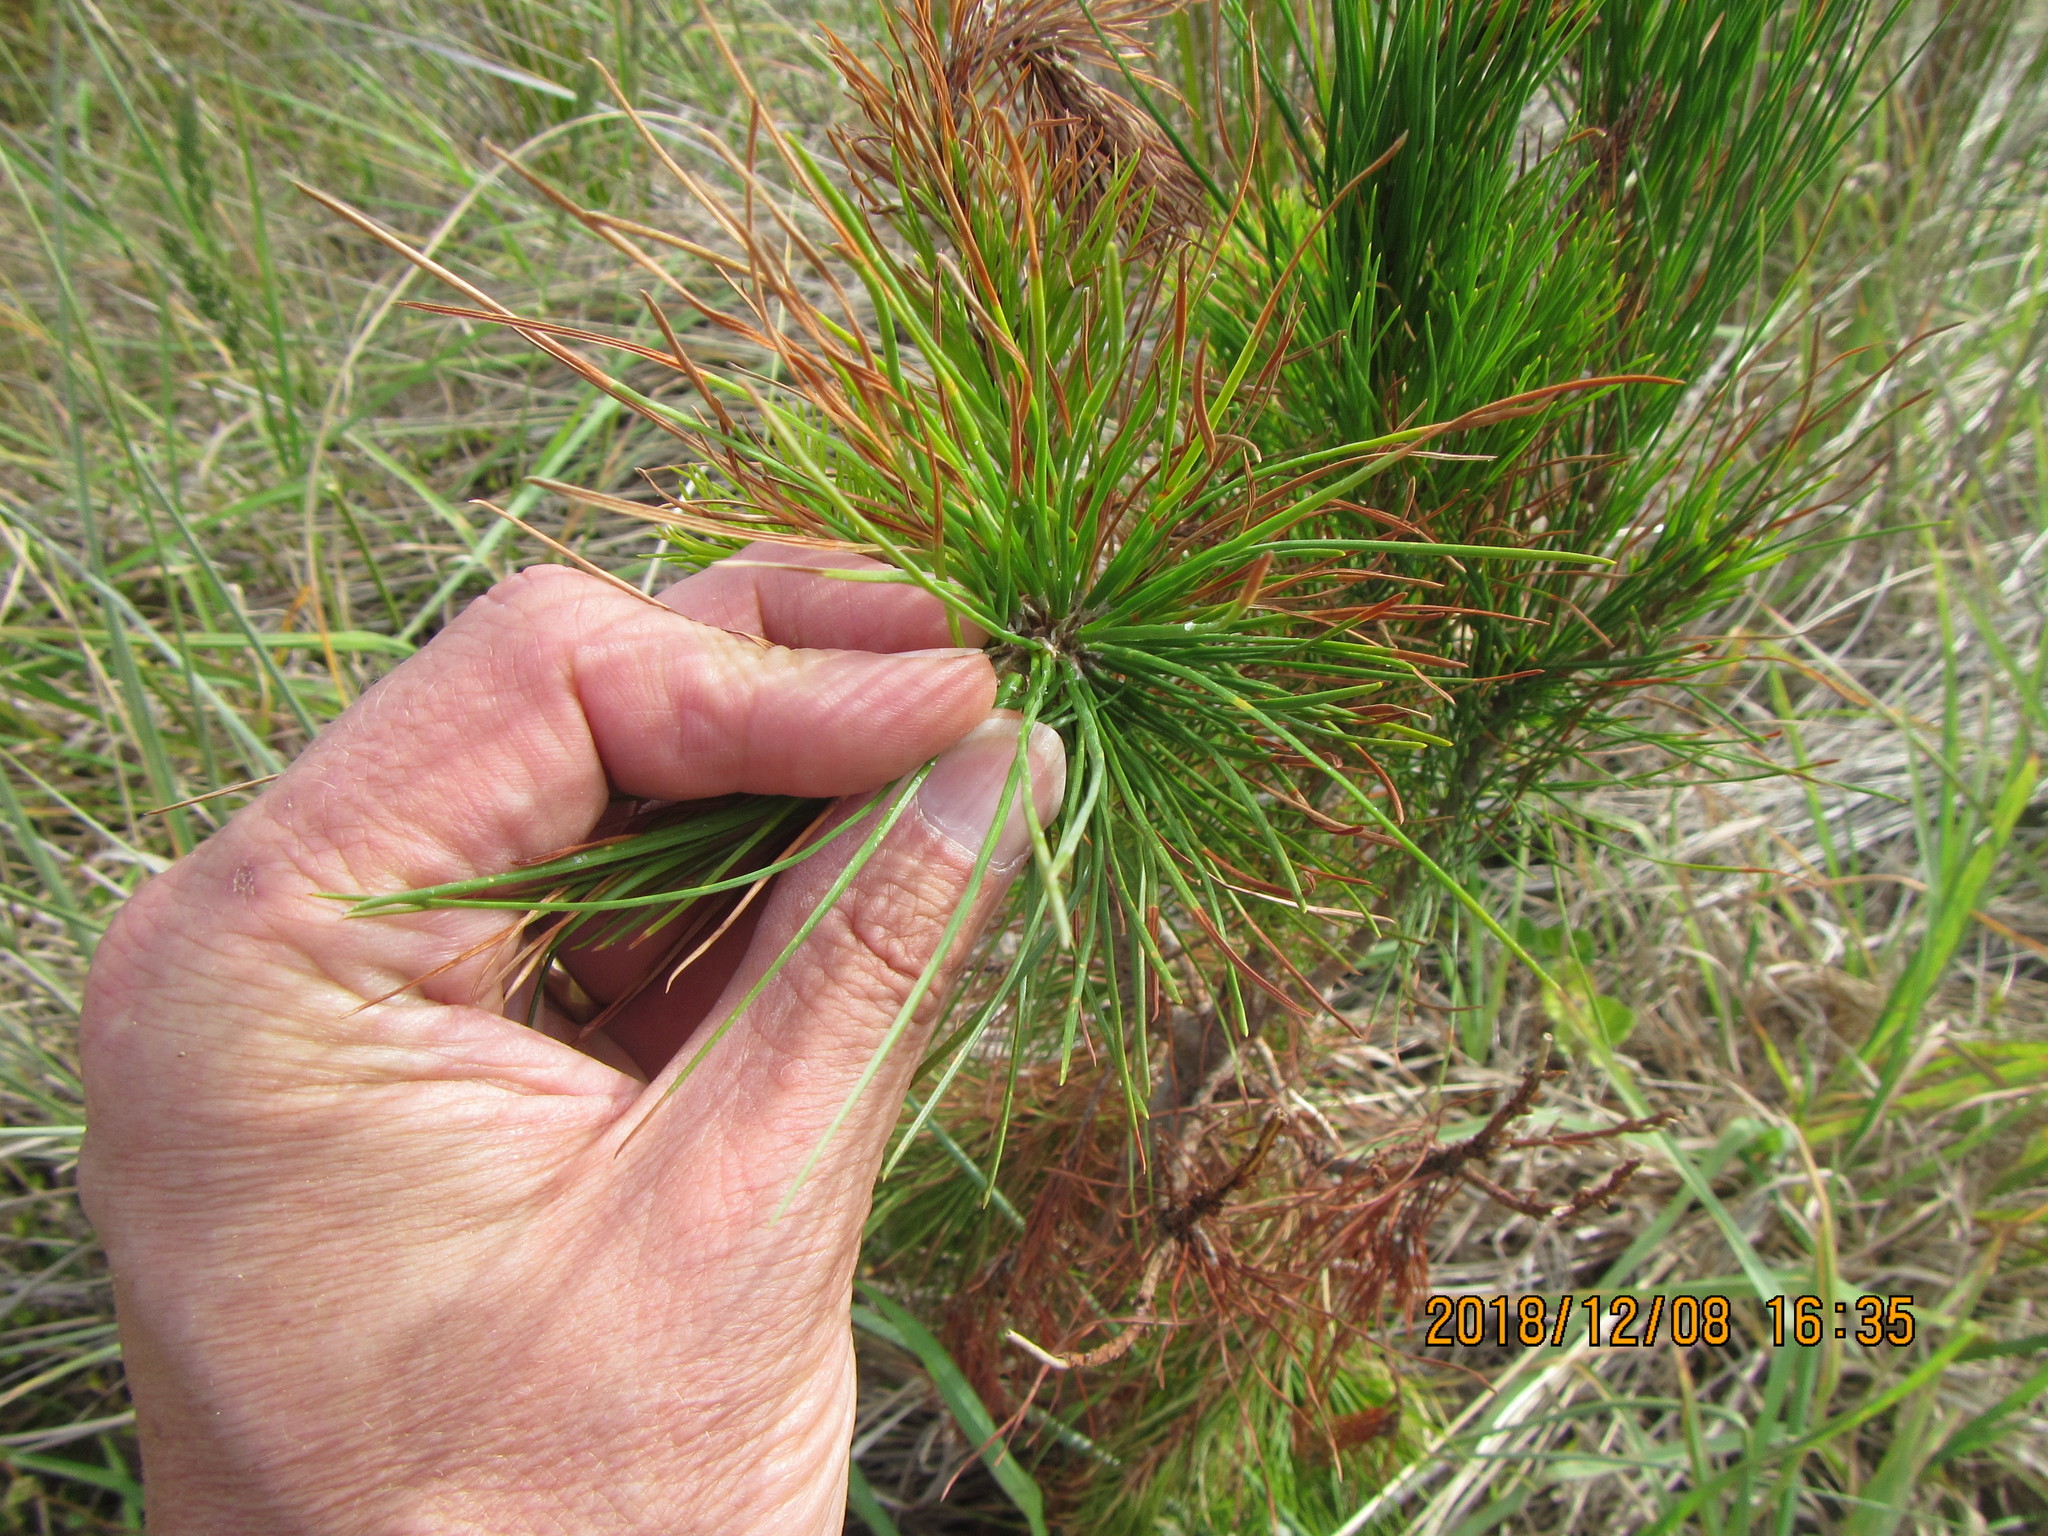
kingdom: Plantae
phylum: Tracheophyta
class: Pinopsida
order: Pinales
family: Pinaceae
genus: Pinus
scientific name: Pinus radiata
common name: Monterey pine
